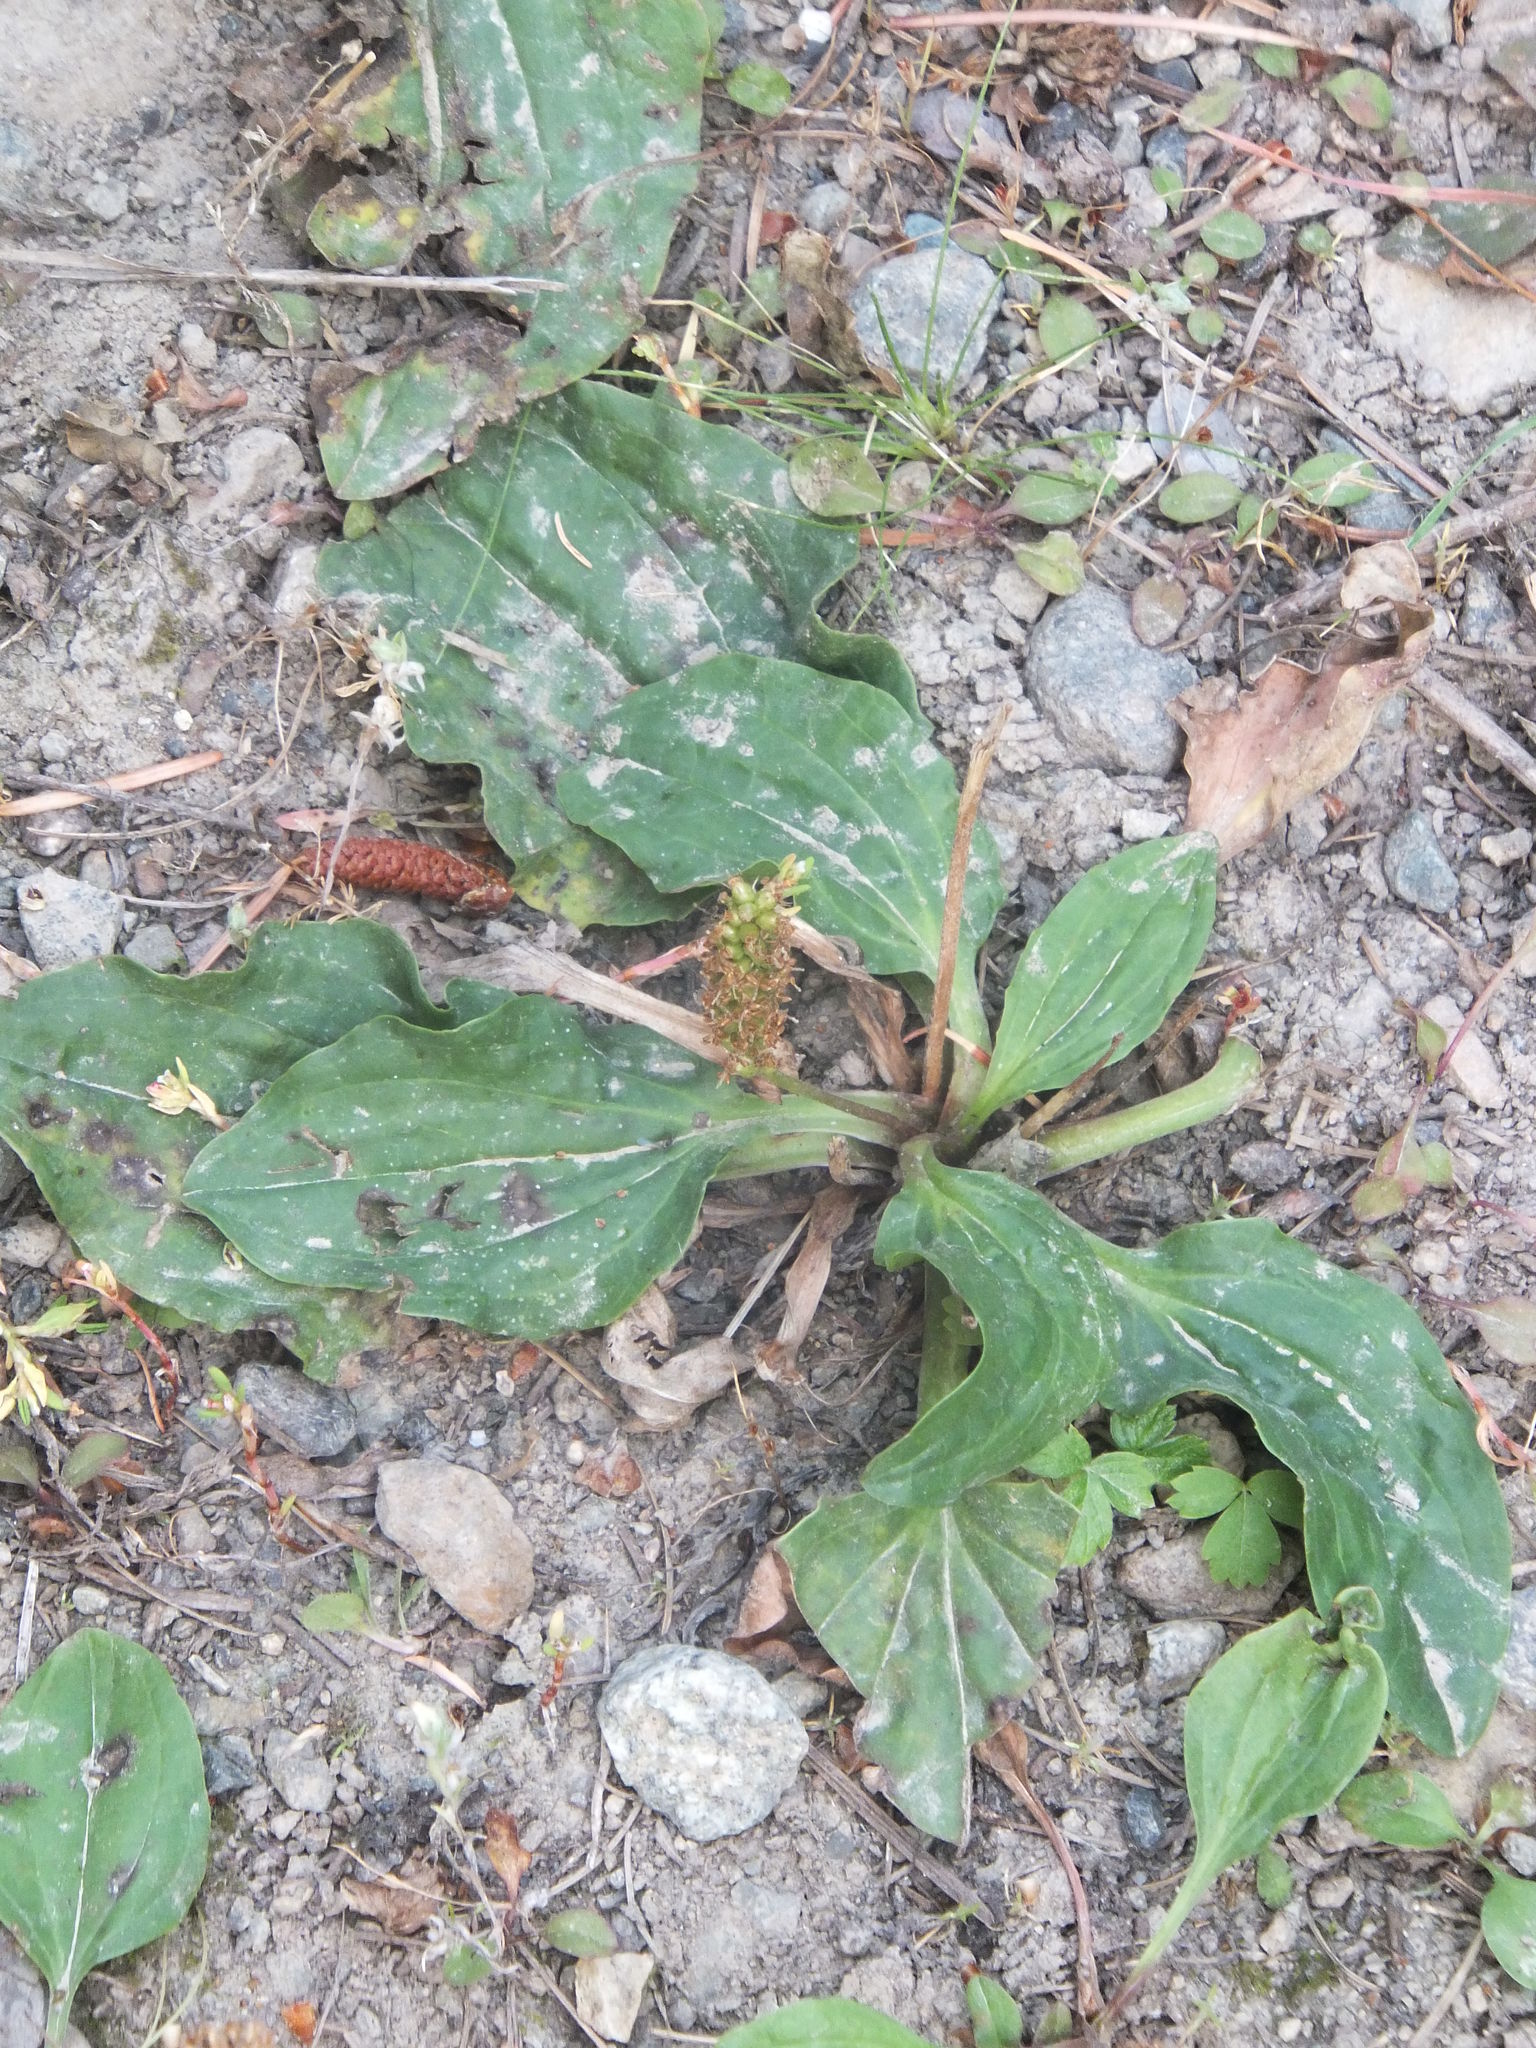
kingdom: Plantae
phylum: Tracheophyta
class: Magnoliopsida
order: Lamiales
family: Plantaginaceae
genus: Plantago
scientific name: Plantago major
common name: Common plantain
